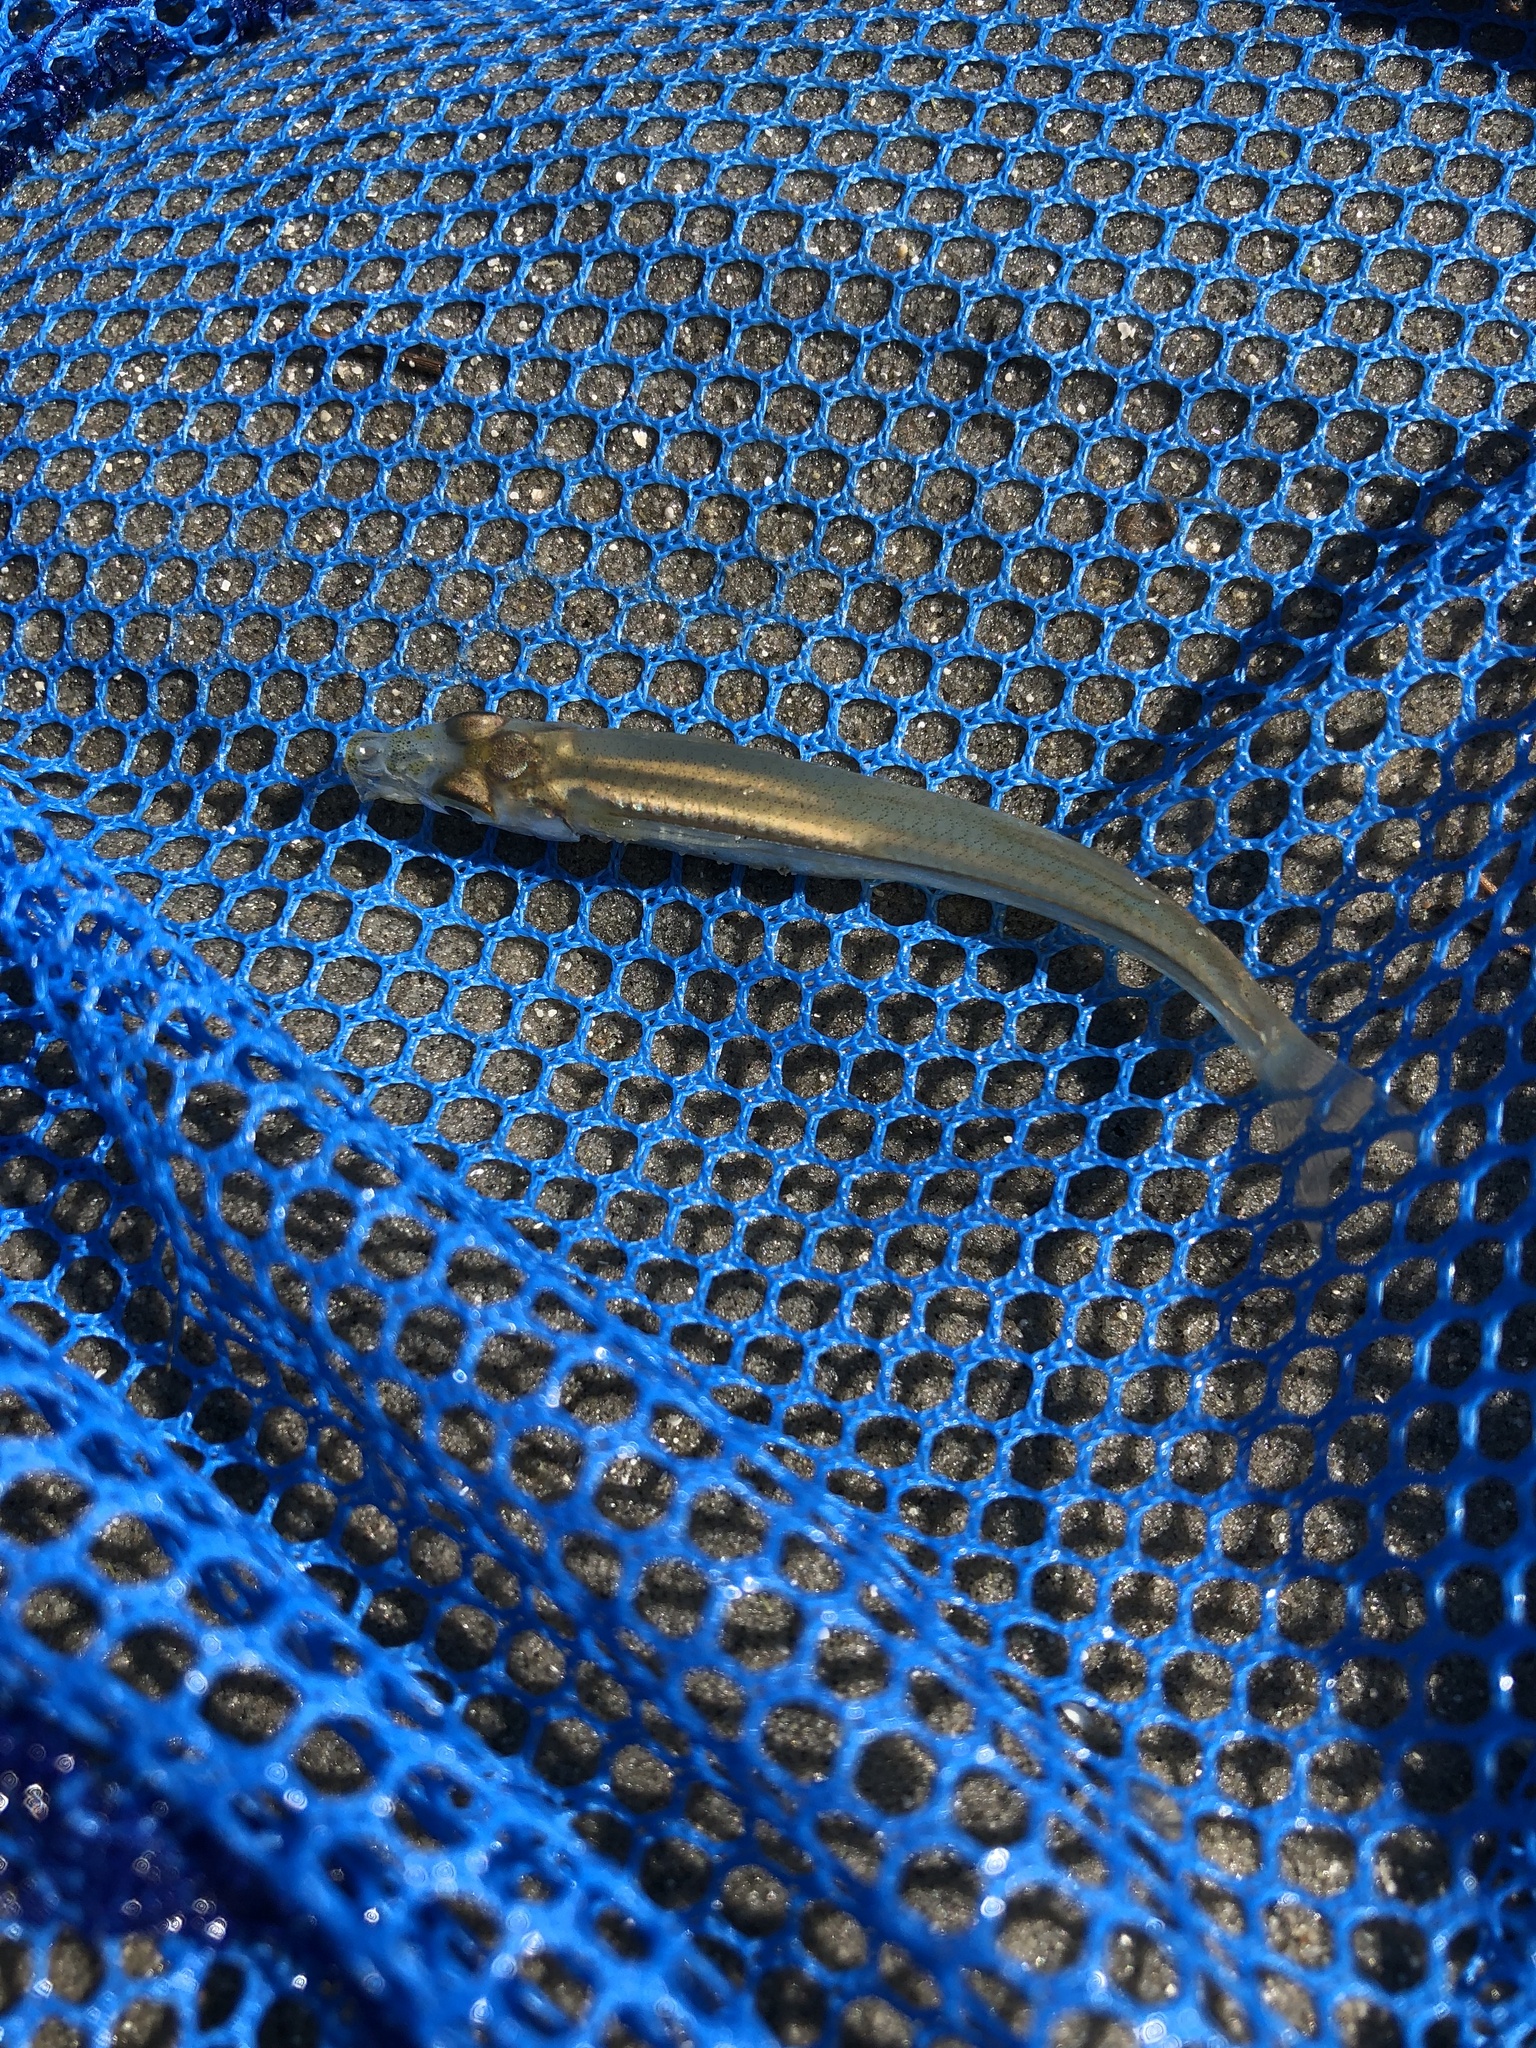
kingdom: Animalia
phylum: Chordata
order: Atheriniformes
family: Atherinopsidae
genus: Menidia
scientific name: Menidia menidia
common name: Atlantic silverside
